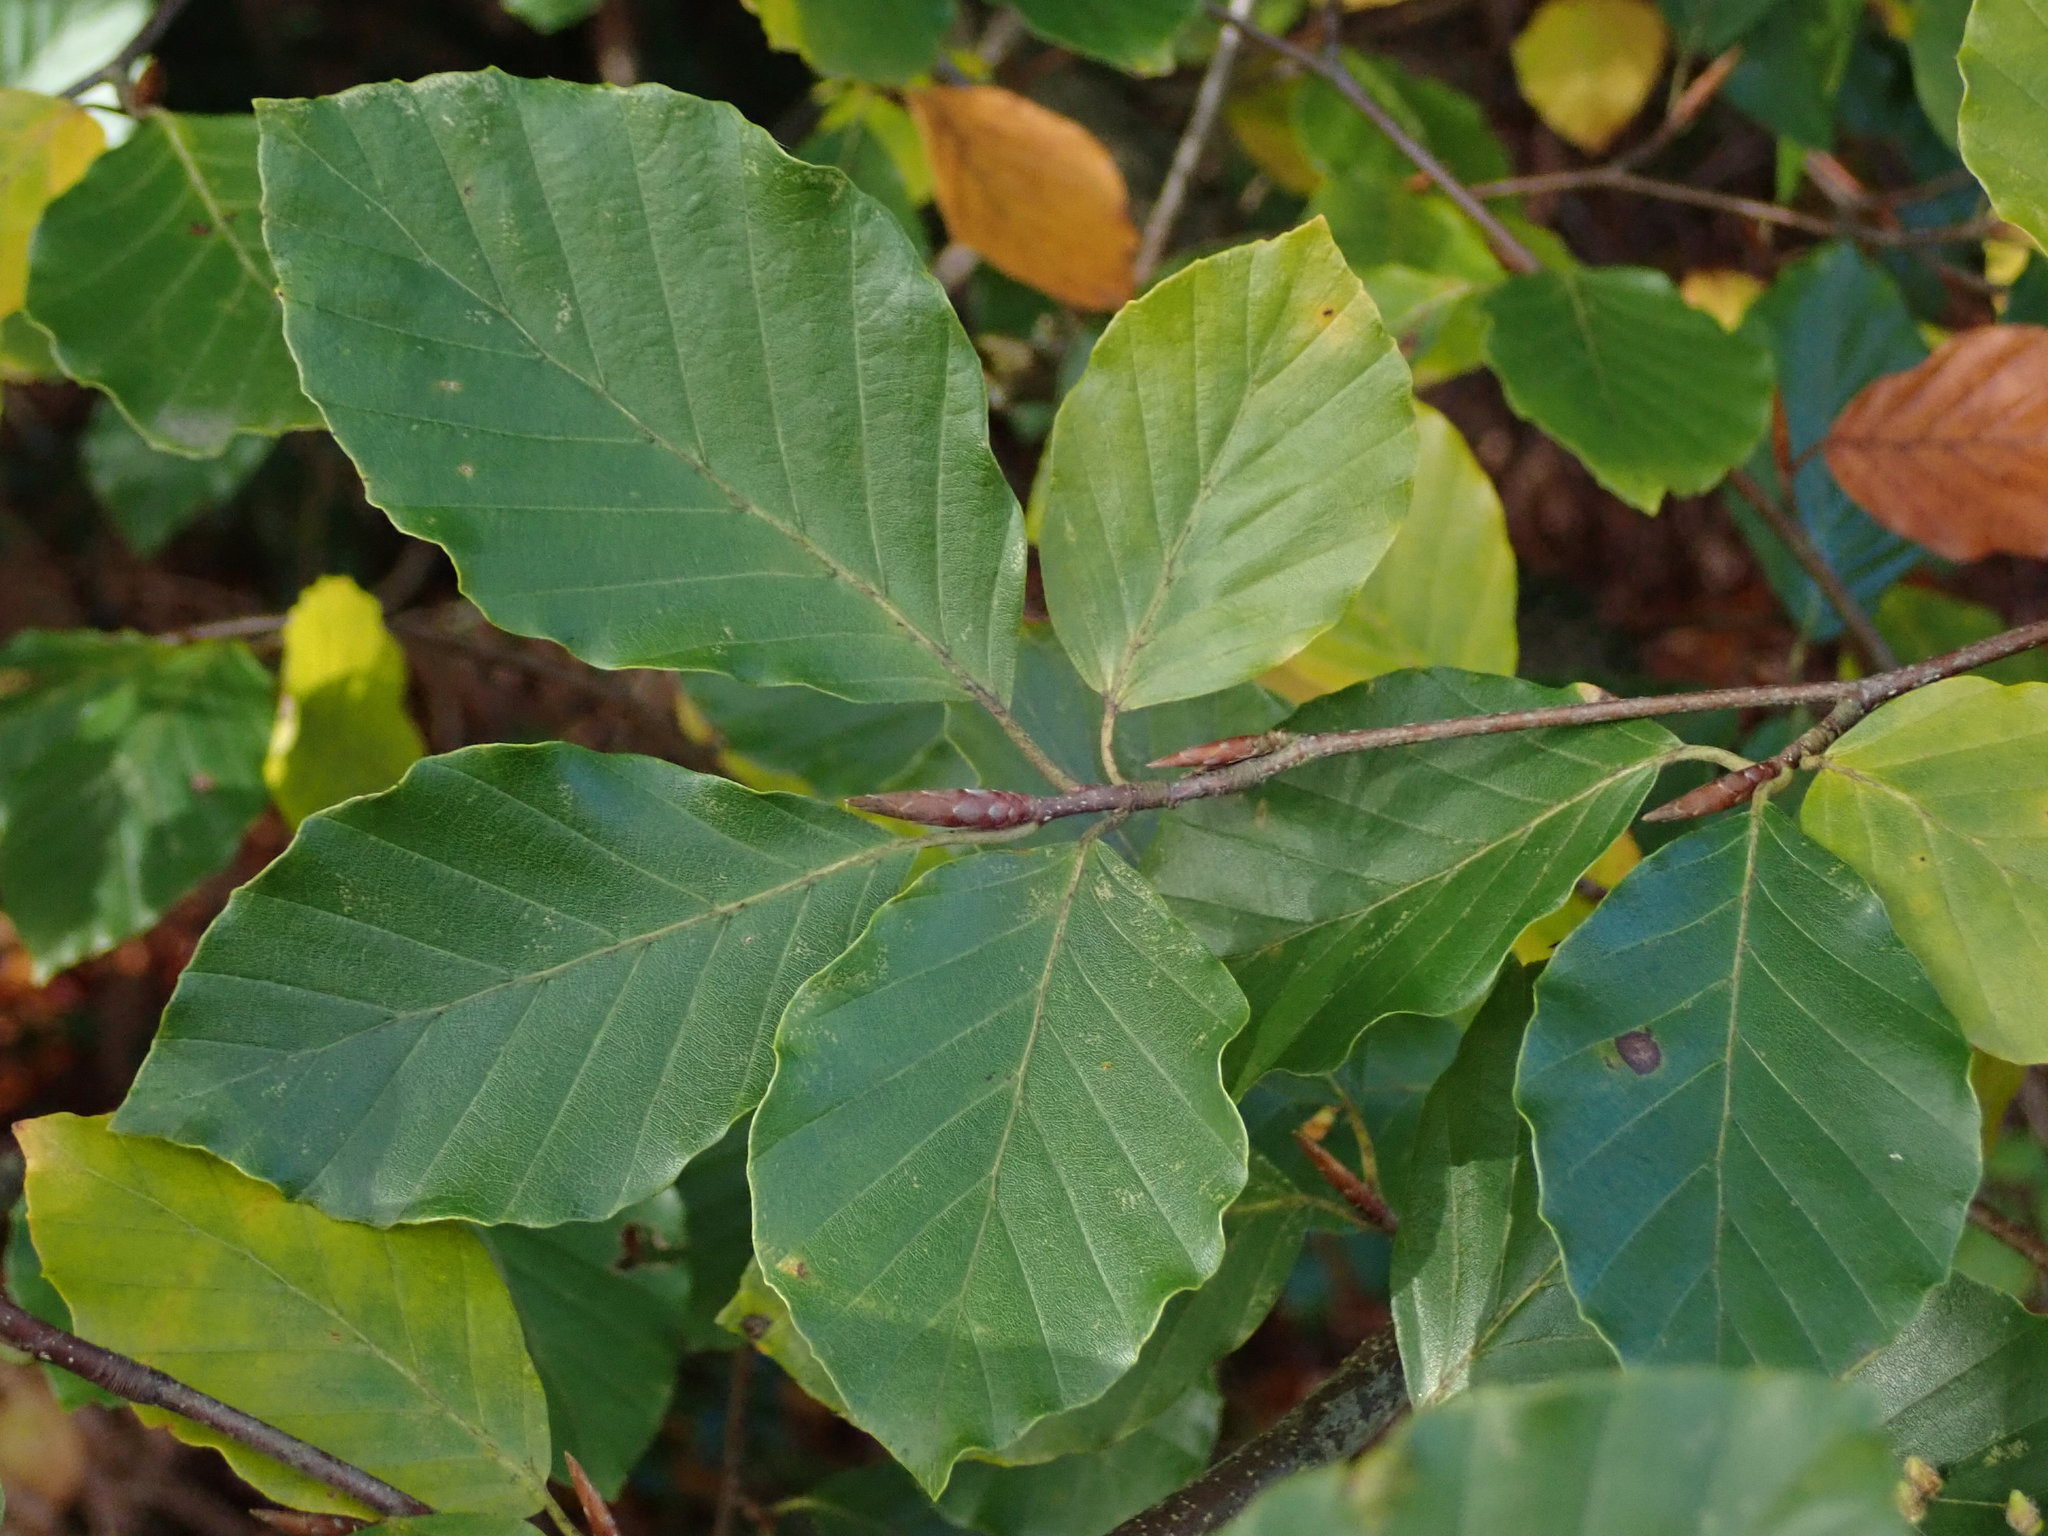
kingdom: Plantae
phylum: Tracheophyta
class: Magnoliopsida
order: Fagales
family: Fagaceae
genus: Fagus
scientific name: Fagus sylvatica
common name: Beech
